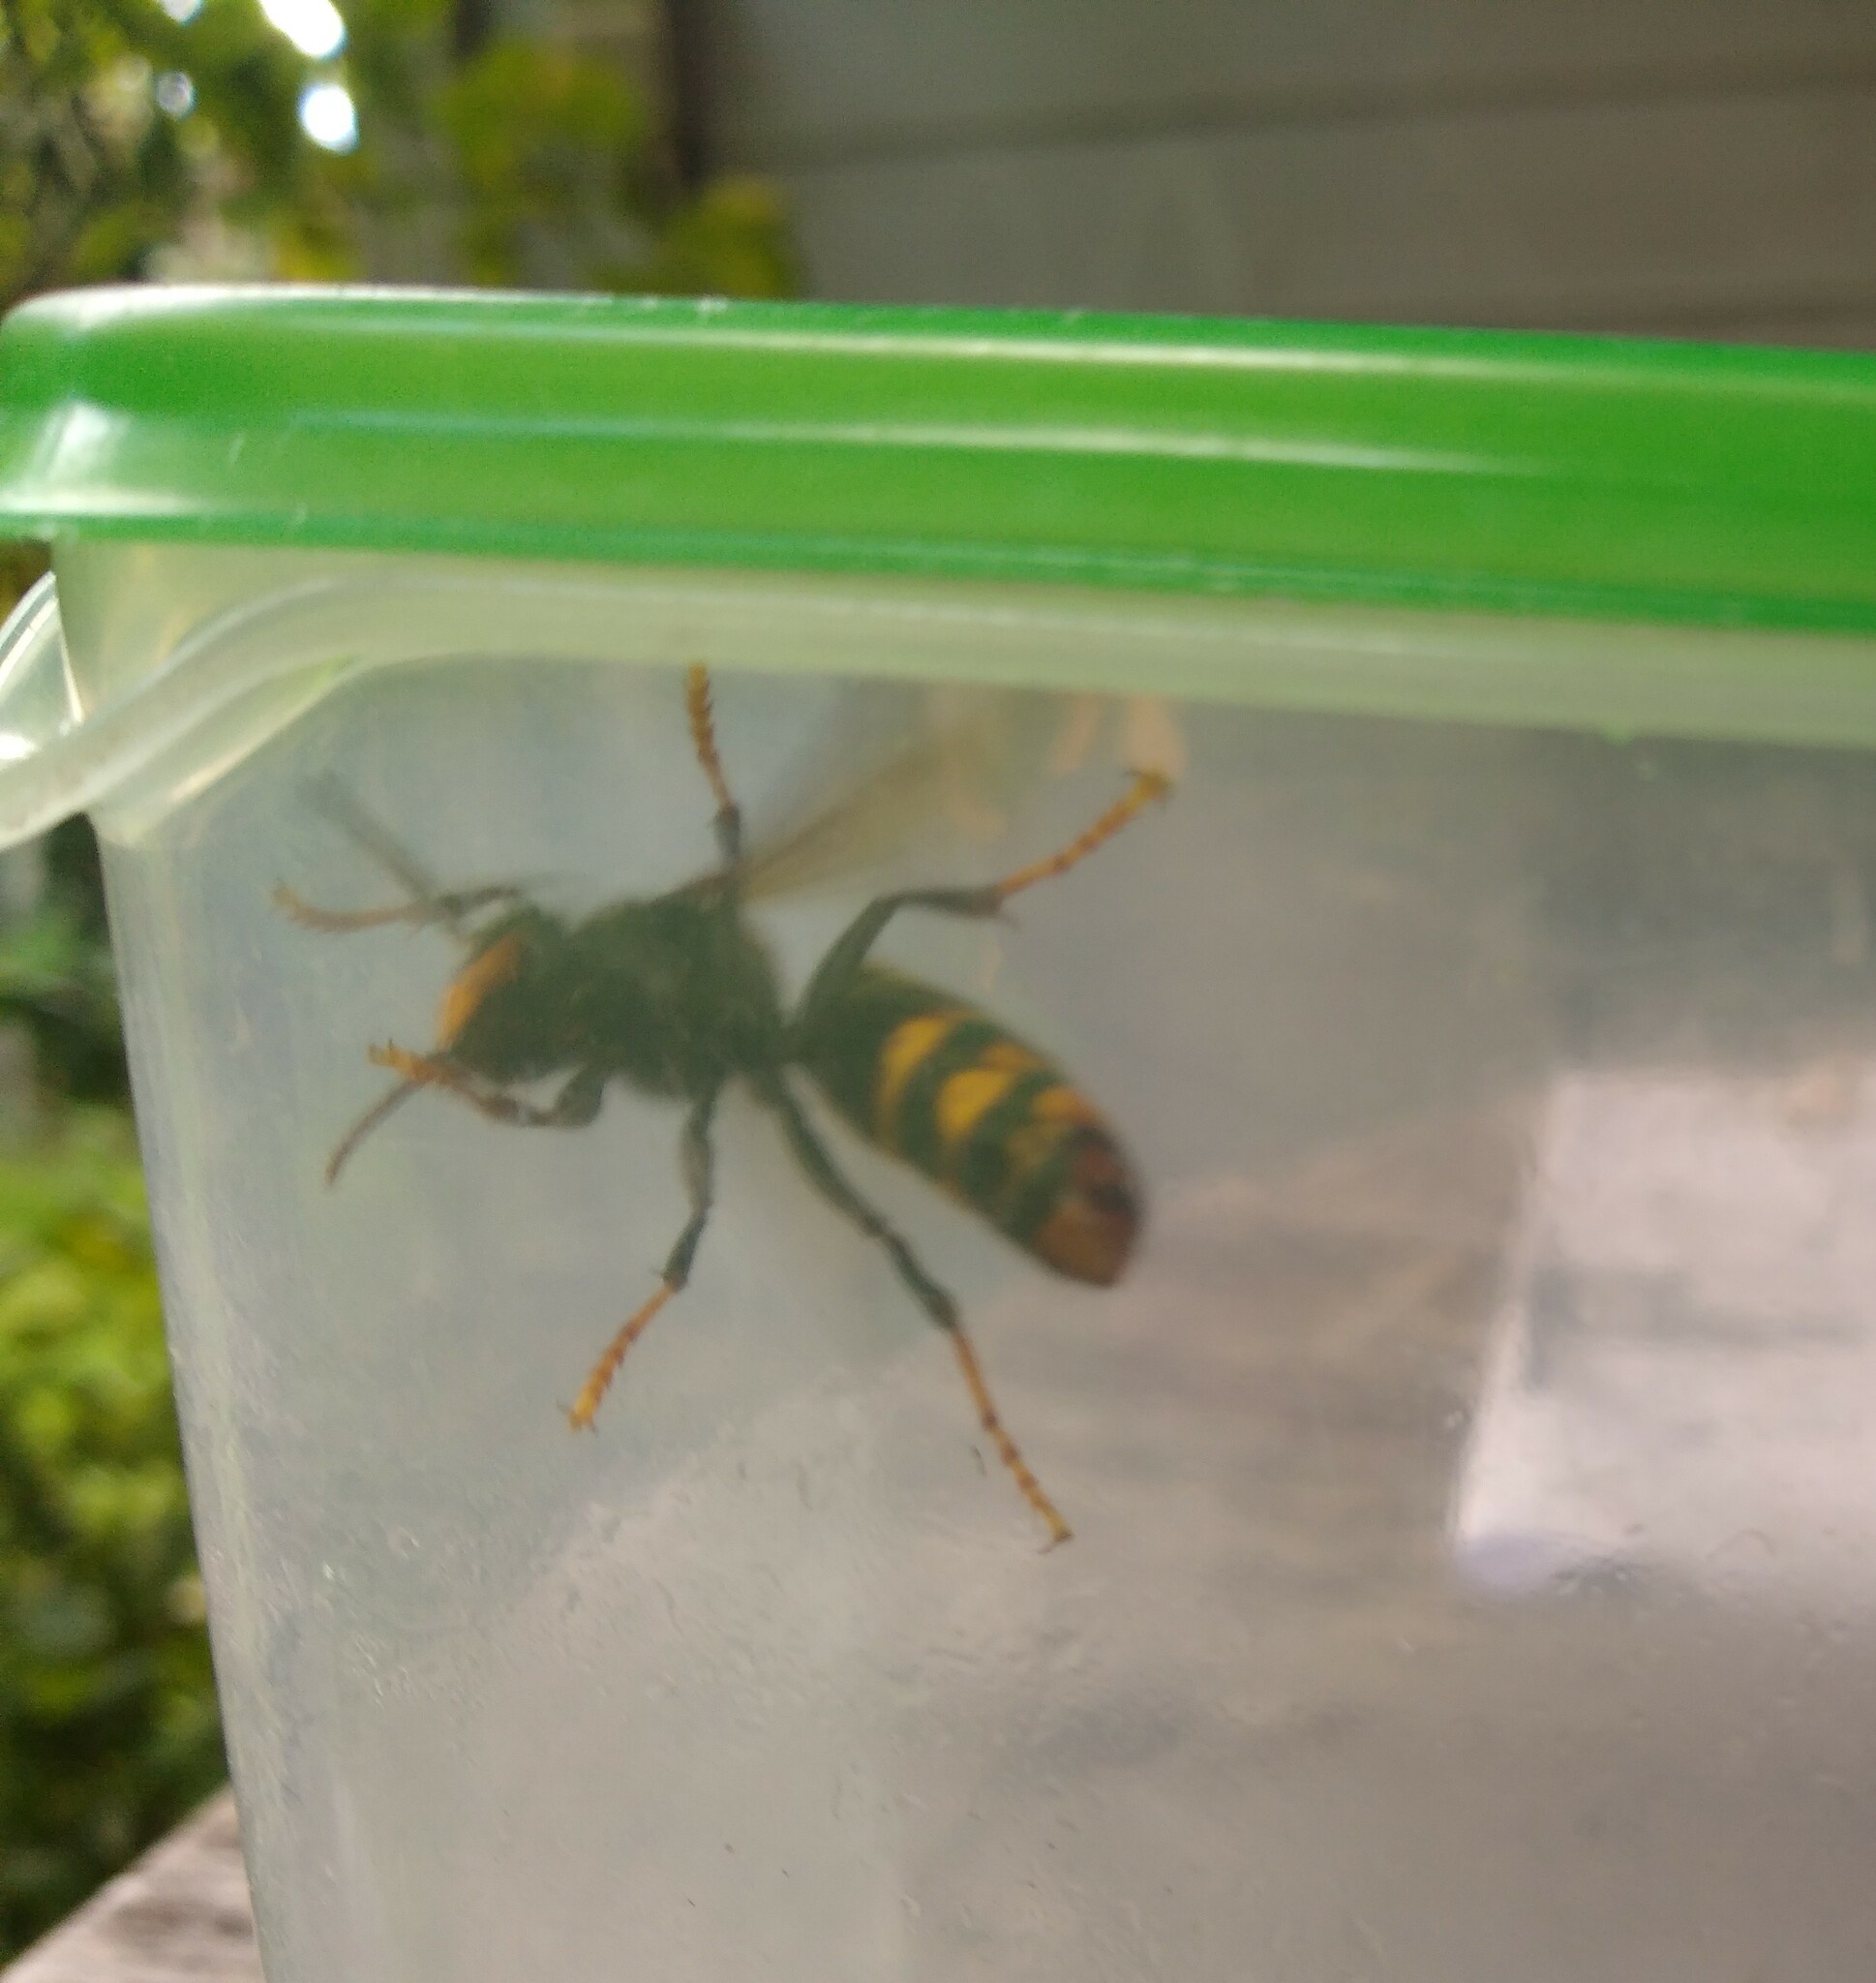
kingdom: Animalia
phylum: Arthropoda
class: Insecta
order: Hymenoptera
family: Vespidae
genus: Vespa
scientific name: Vespa velutina
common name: Asian hornet
